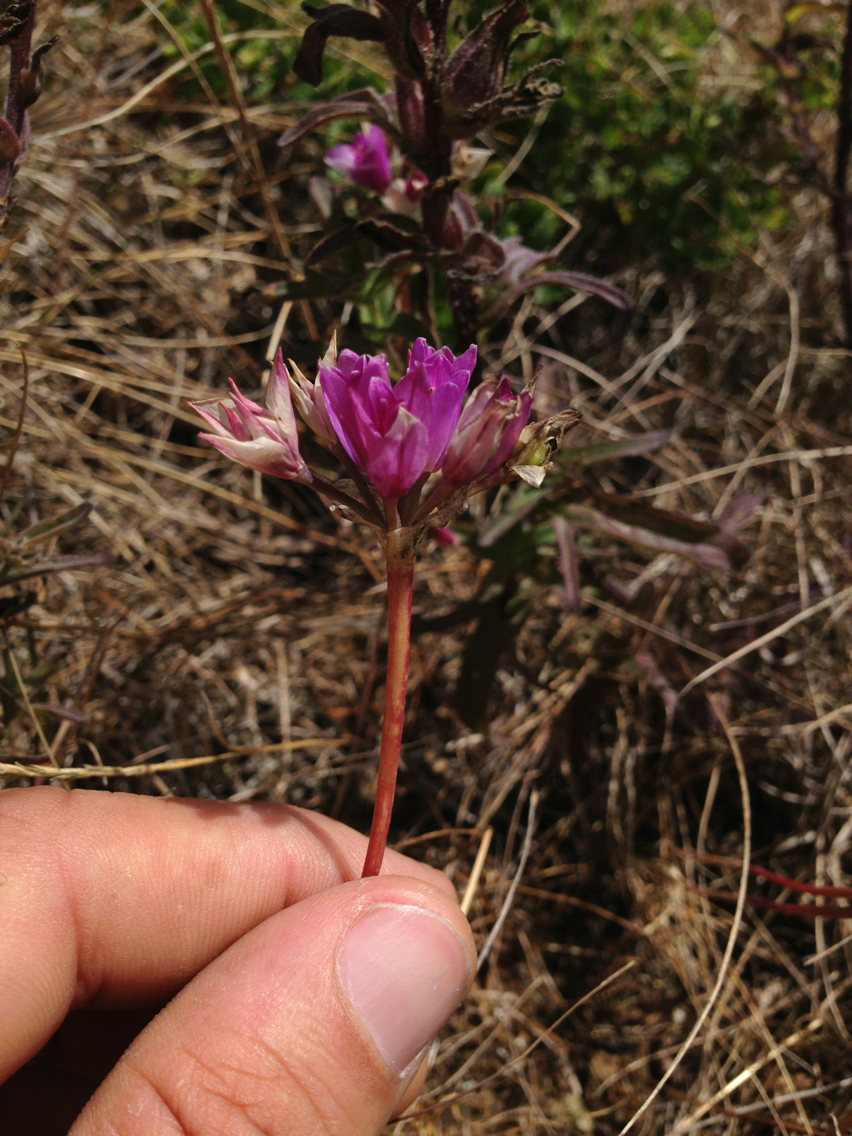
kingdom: Plantae
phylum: Tracheophyta
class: Liliopsida
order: Asparagales
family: Amaryllidaceae
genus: Allium
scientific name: Allium dichlamydeum
